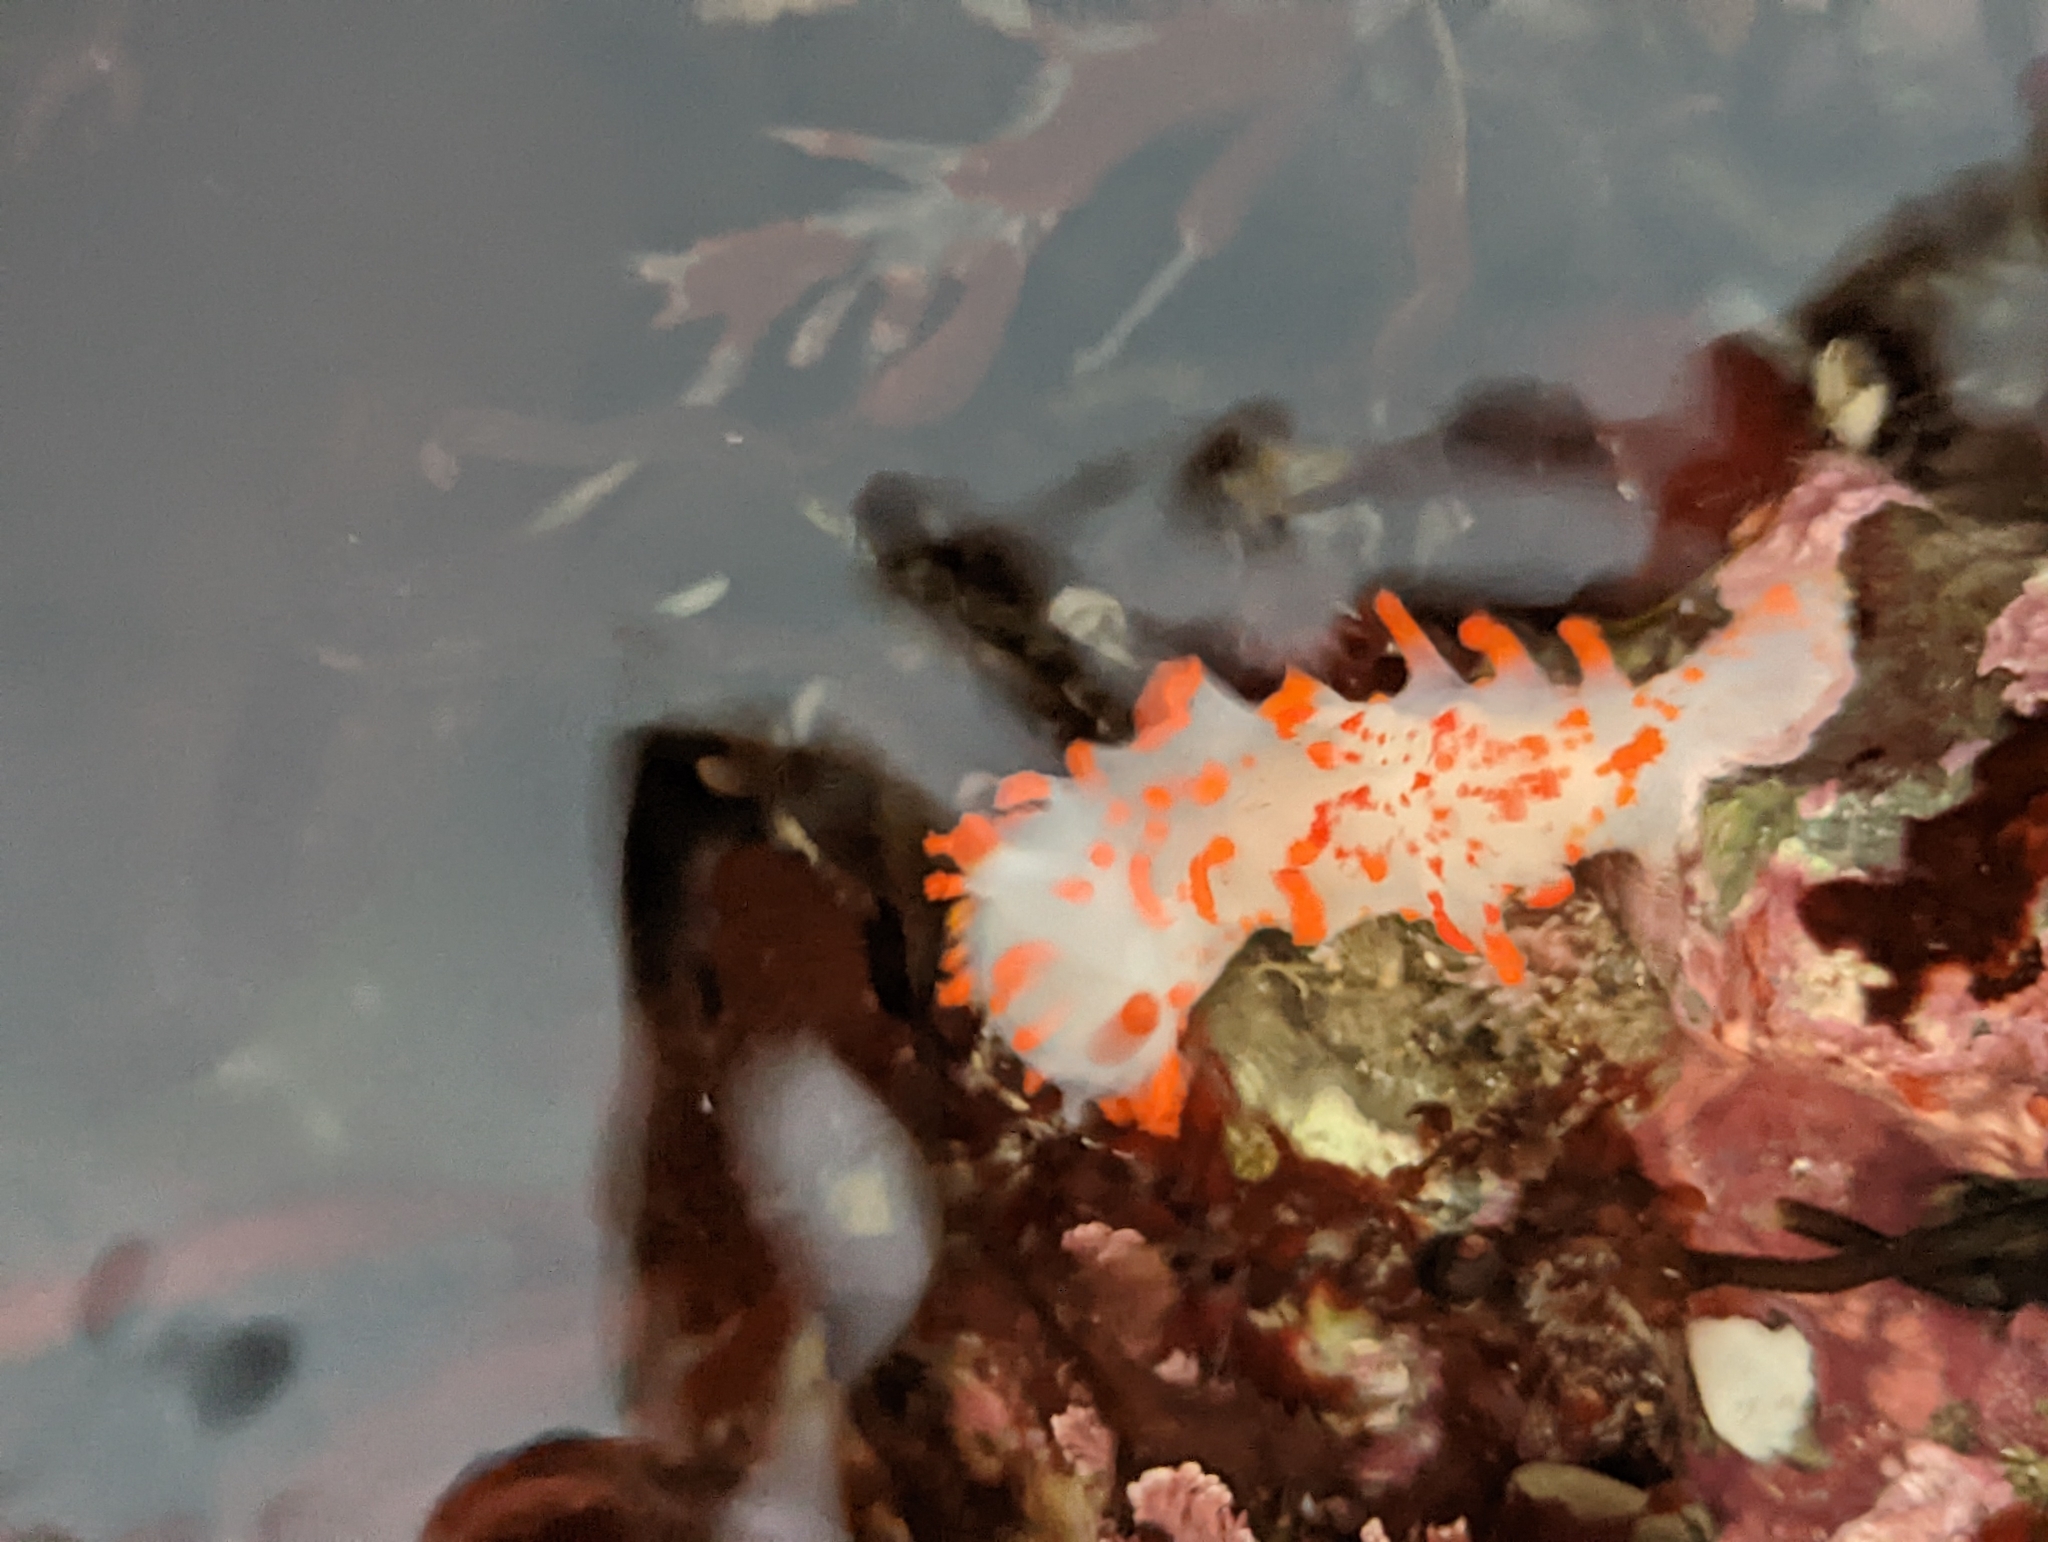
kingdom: Animalia
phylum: Mollusca
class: Gastropoda
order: Nudibranchia
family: Polyceridae
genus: Triopha
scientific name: Triopha catalinae
